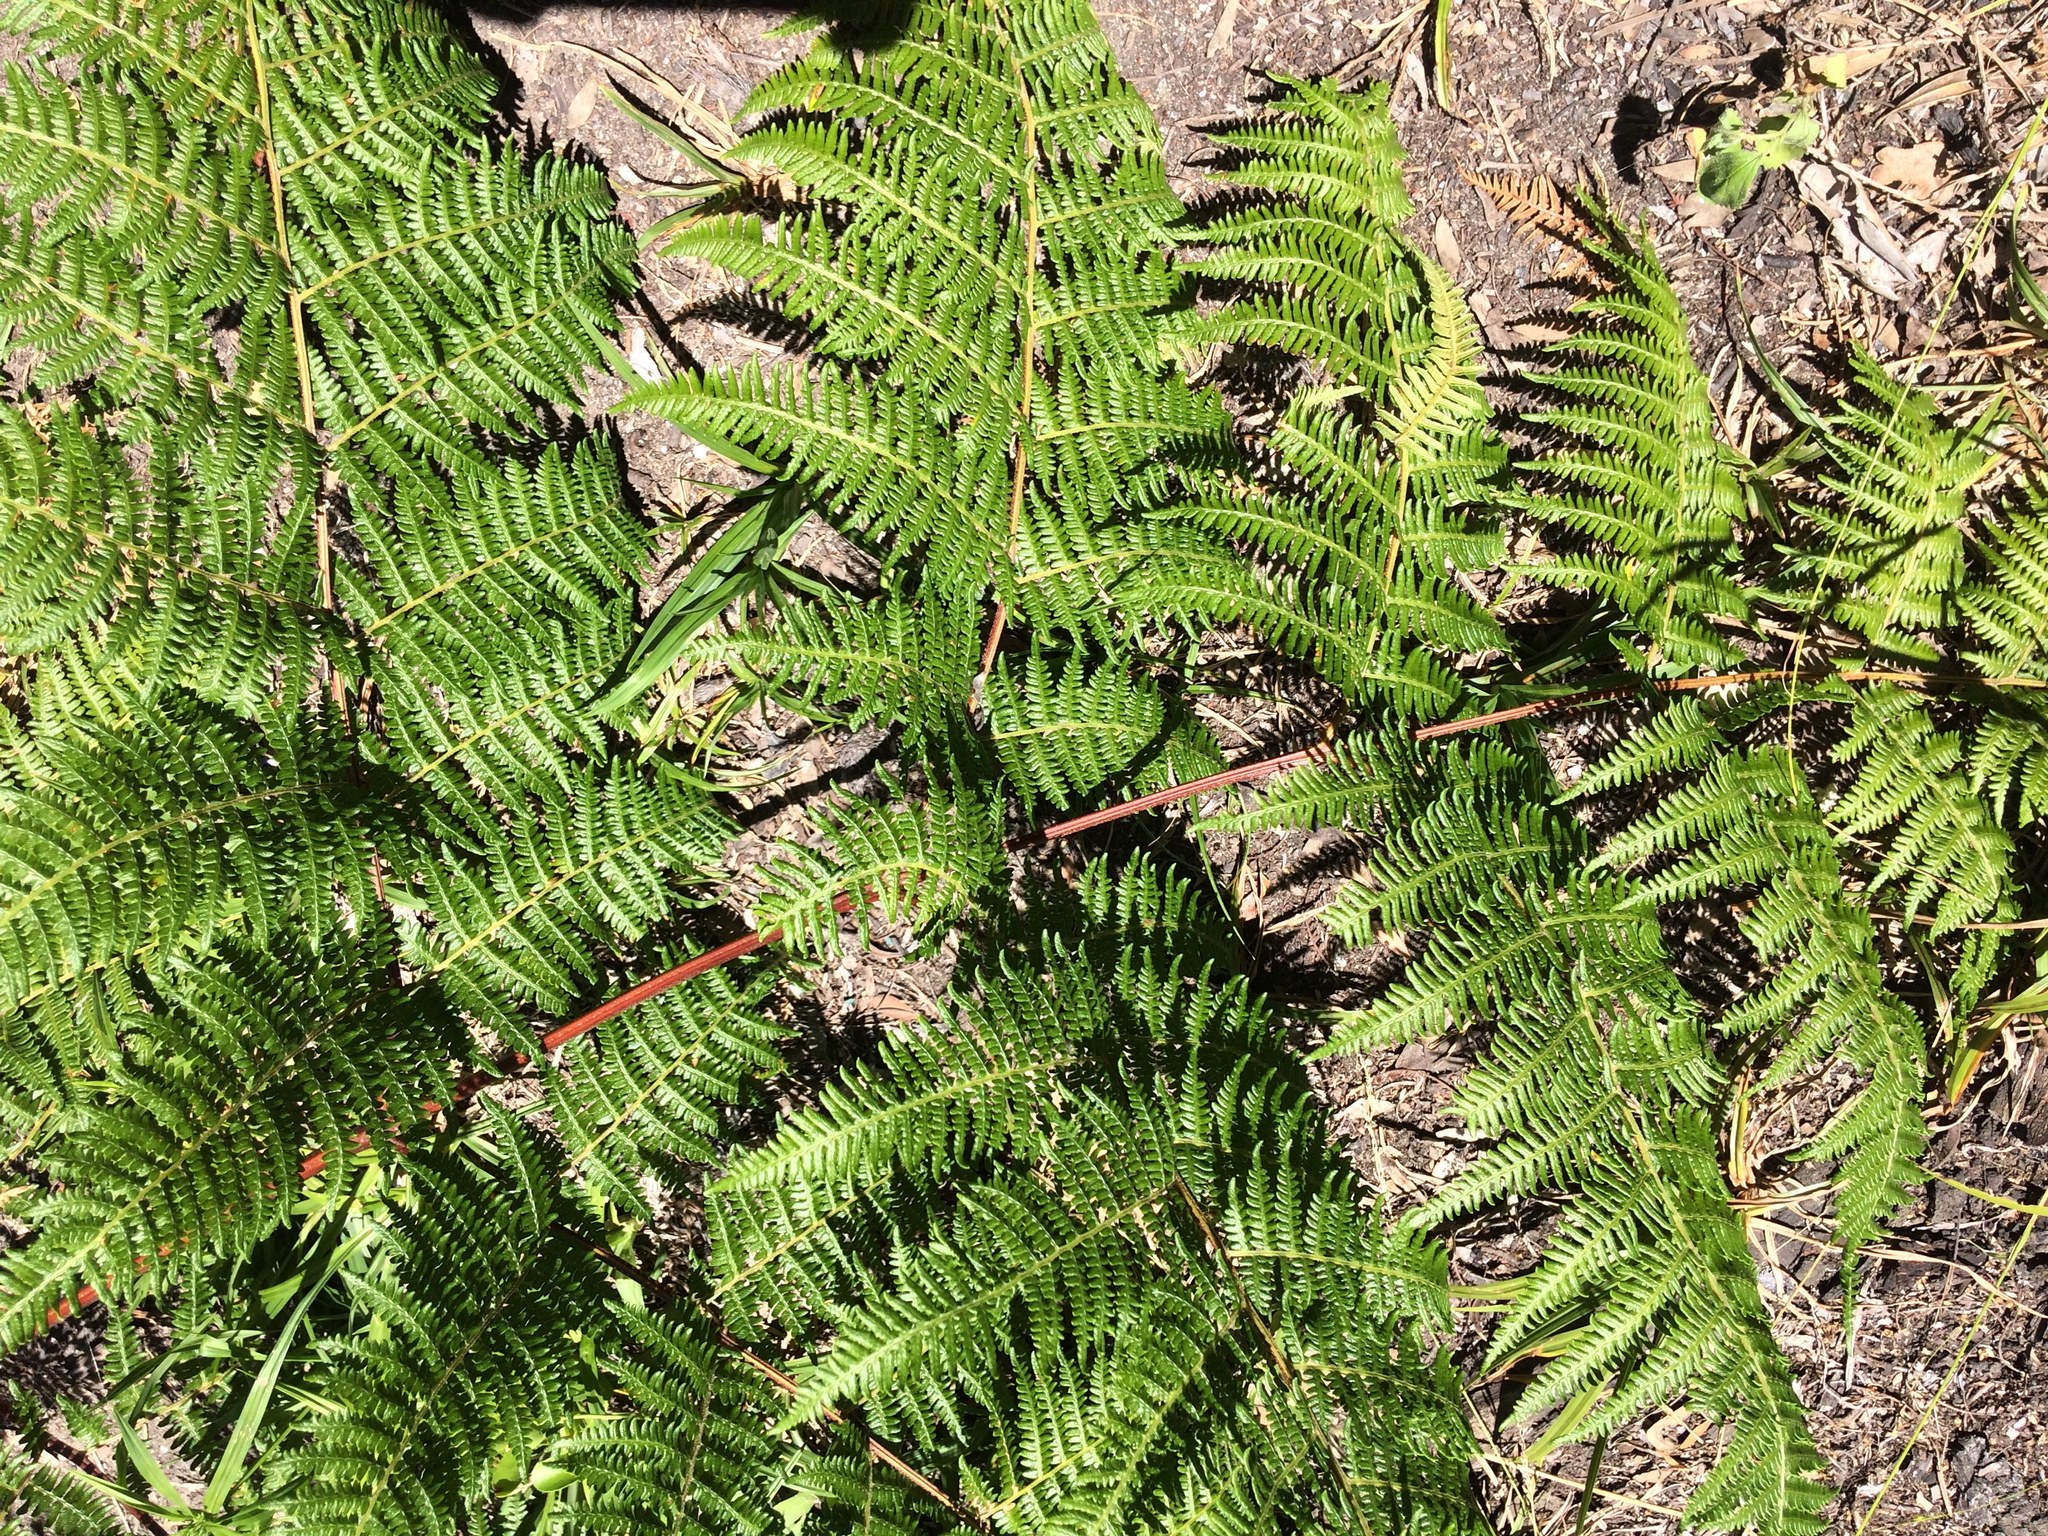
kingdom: Plantae
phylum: Tracheophyta
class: Polypodiopsida
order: Polypodiales
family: Dennstaedtiaceae
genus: Pteridium
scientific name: Pteridium aquilinum
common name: Bracken
